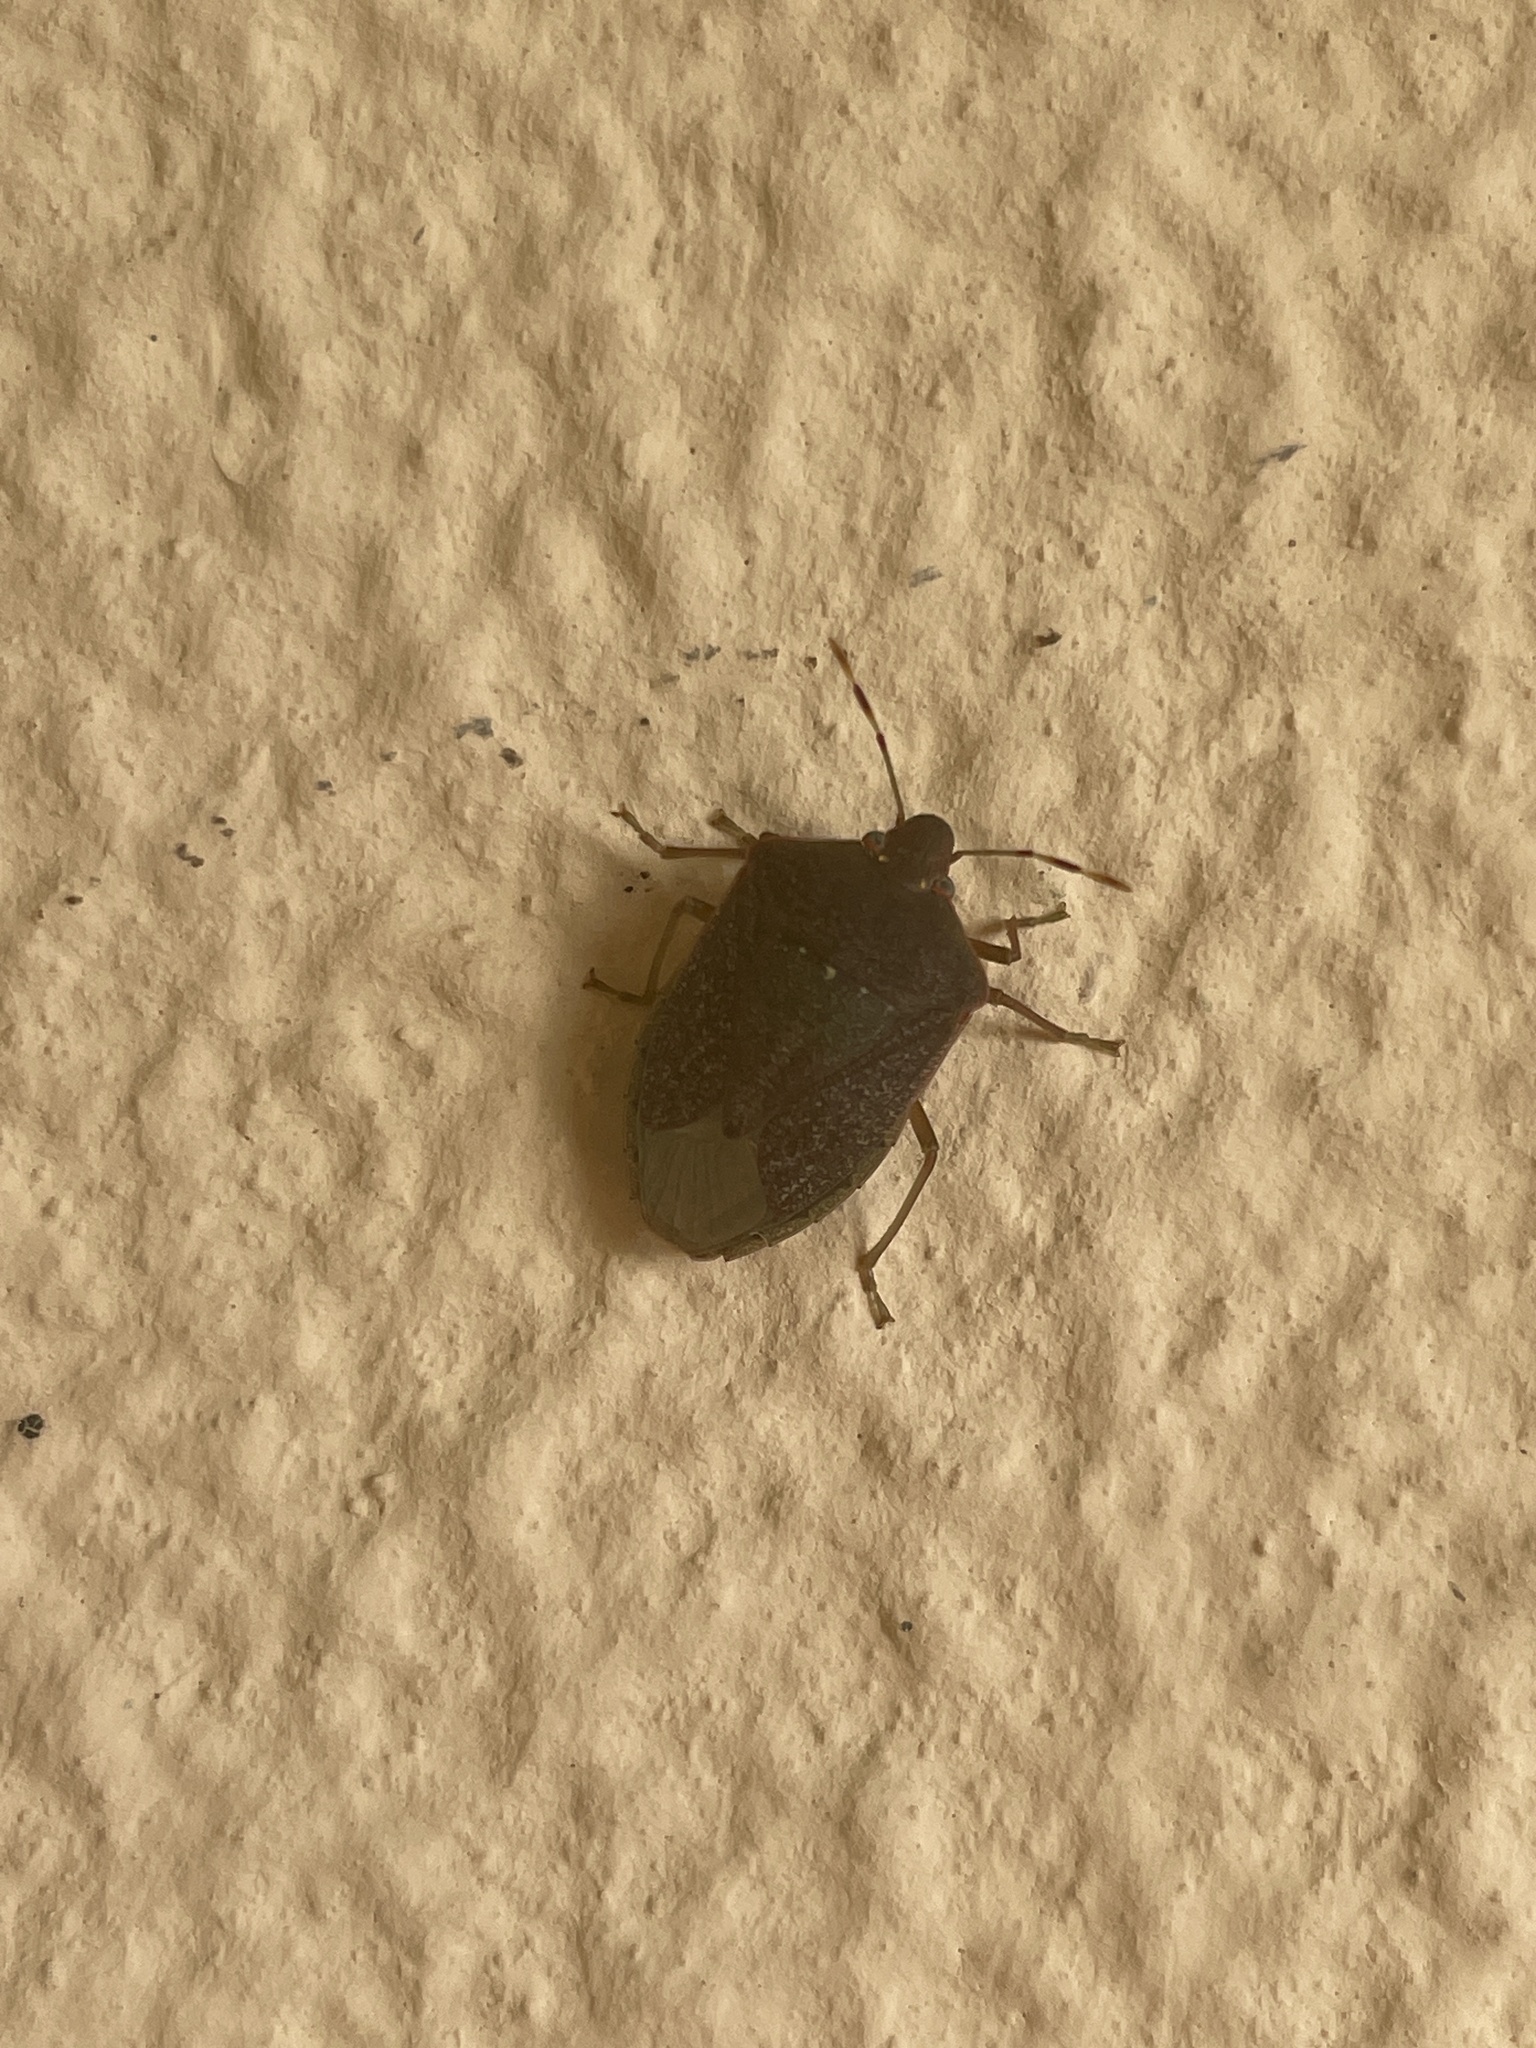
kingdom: Animalia
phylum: Arthropoda
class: Insecta
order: Hemiptera
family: Pentatomidae
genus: Nezara
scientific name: Nezara viridula
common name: Southern green stink bug
